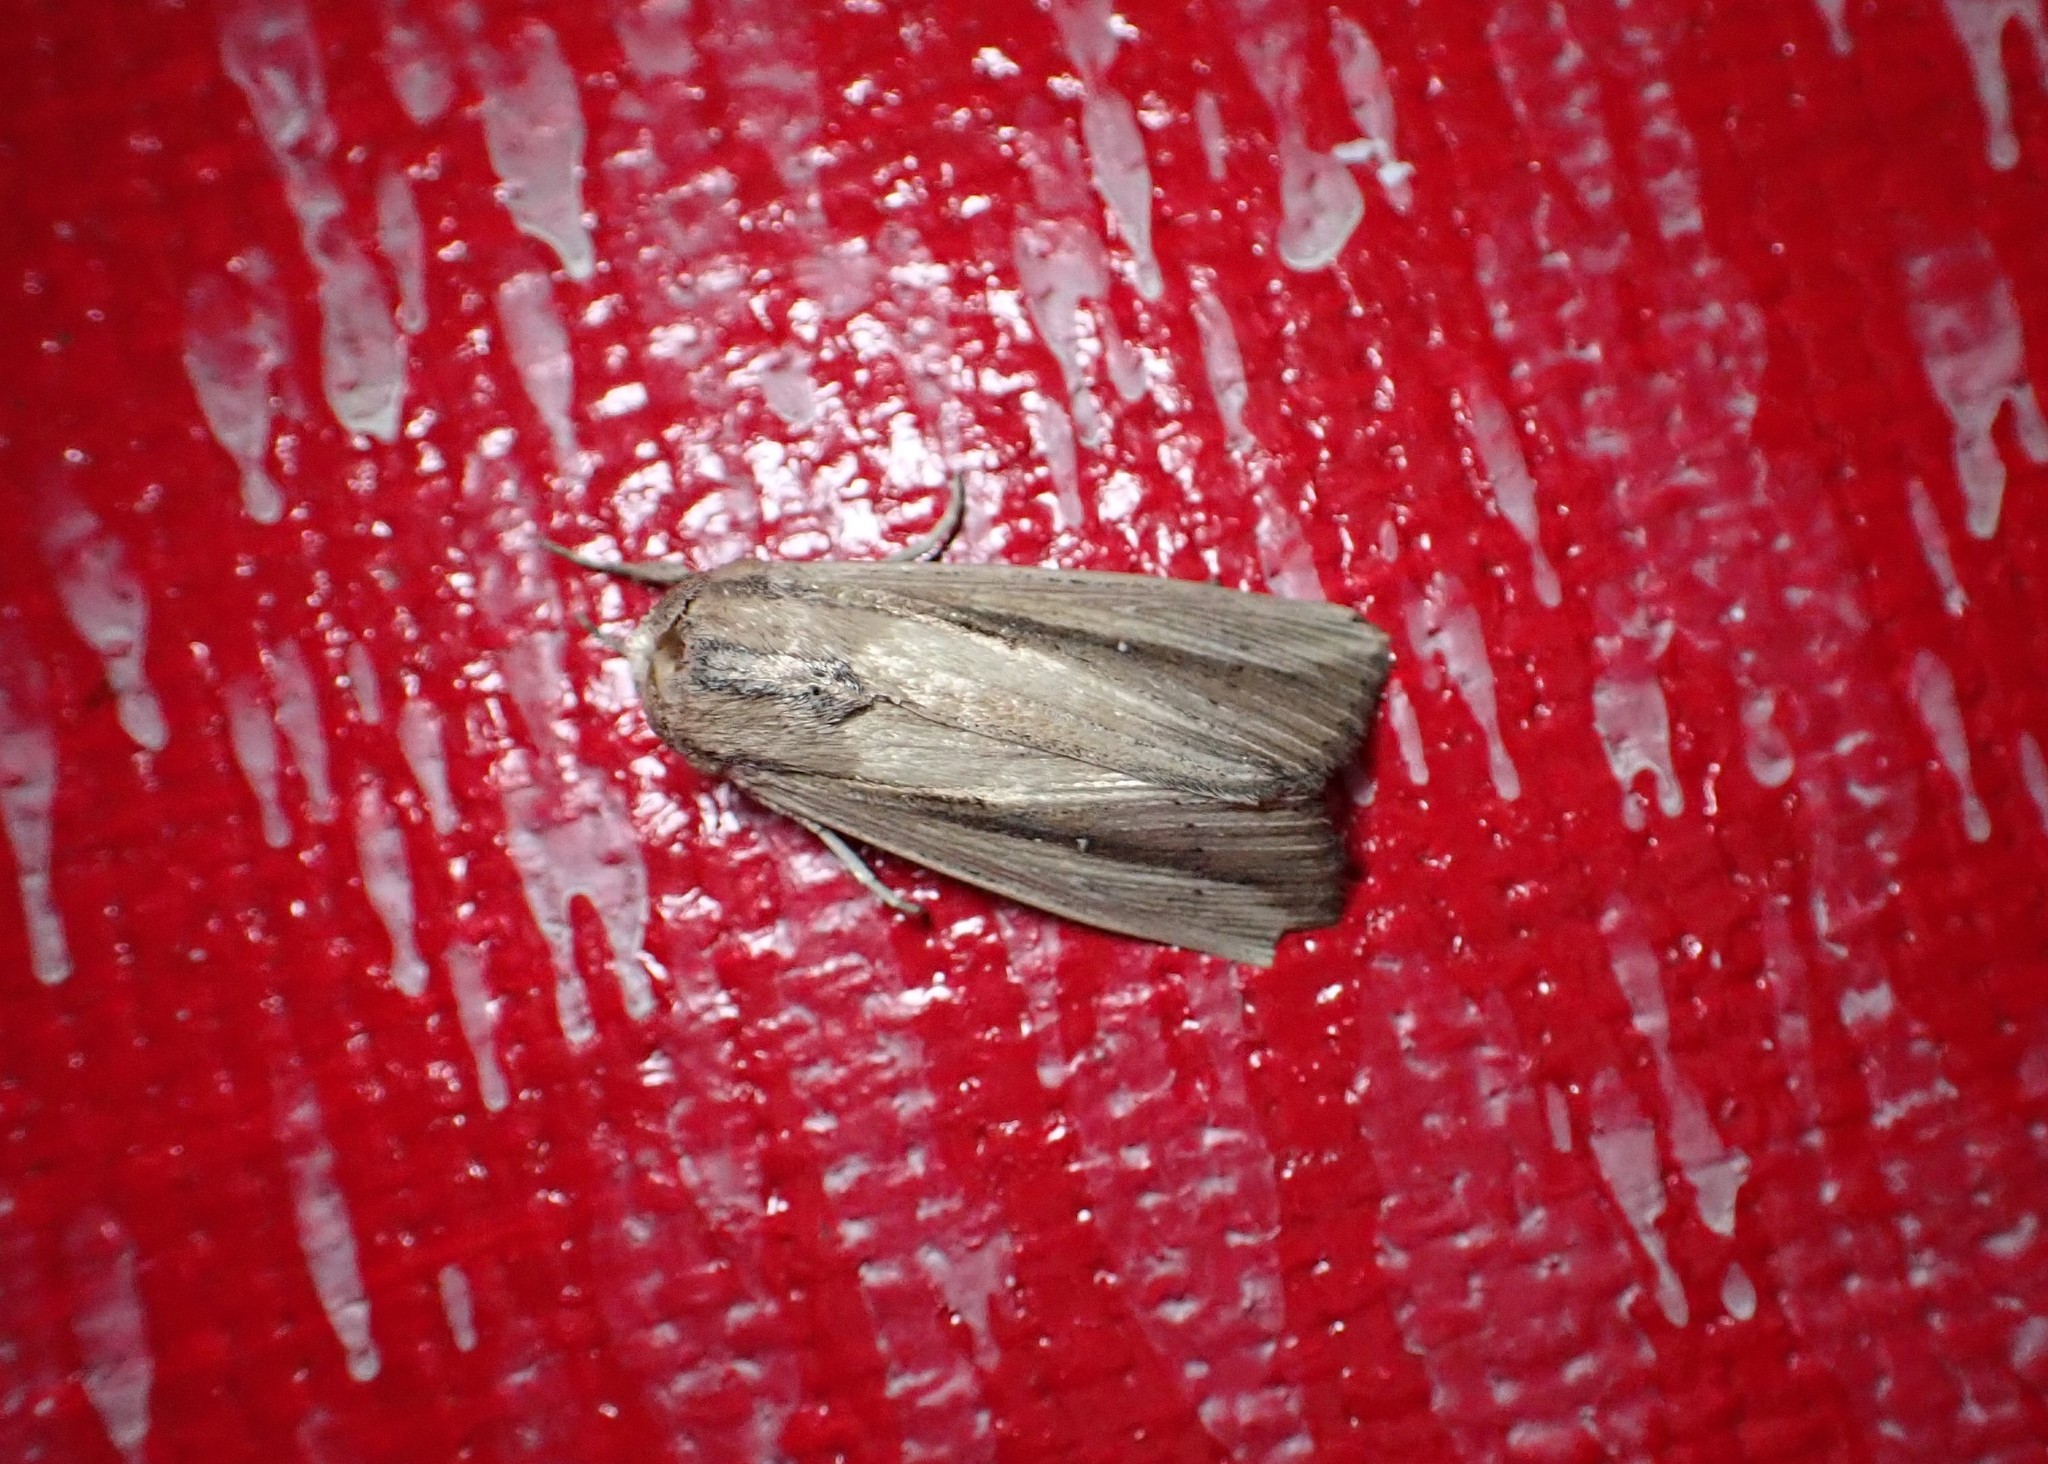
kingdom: Animalia
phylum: Arthropoda
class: Insecta
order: Lepidoptera
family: Noctuidae
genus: Leucania
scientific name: Leucania stenographa
